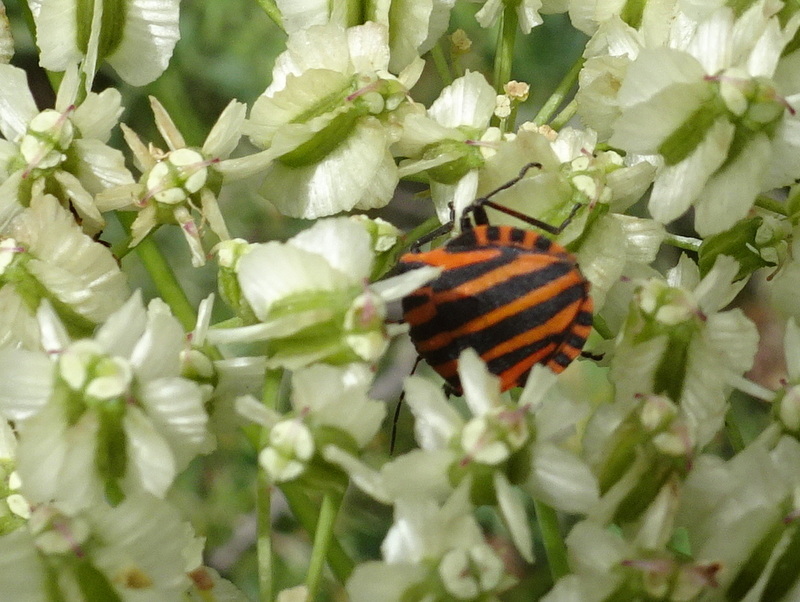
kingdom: Animalia
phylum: Arthropoda
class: Insecta
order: Hemiptera
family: Pentatomidae
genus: Graphosoma
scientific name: Graphosoma italicum
